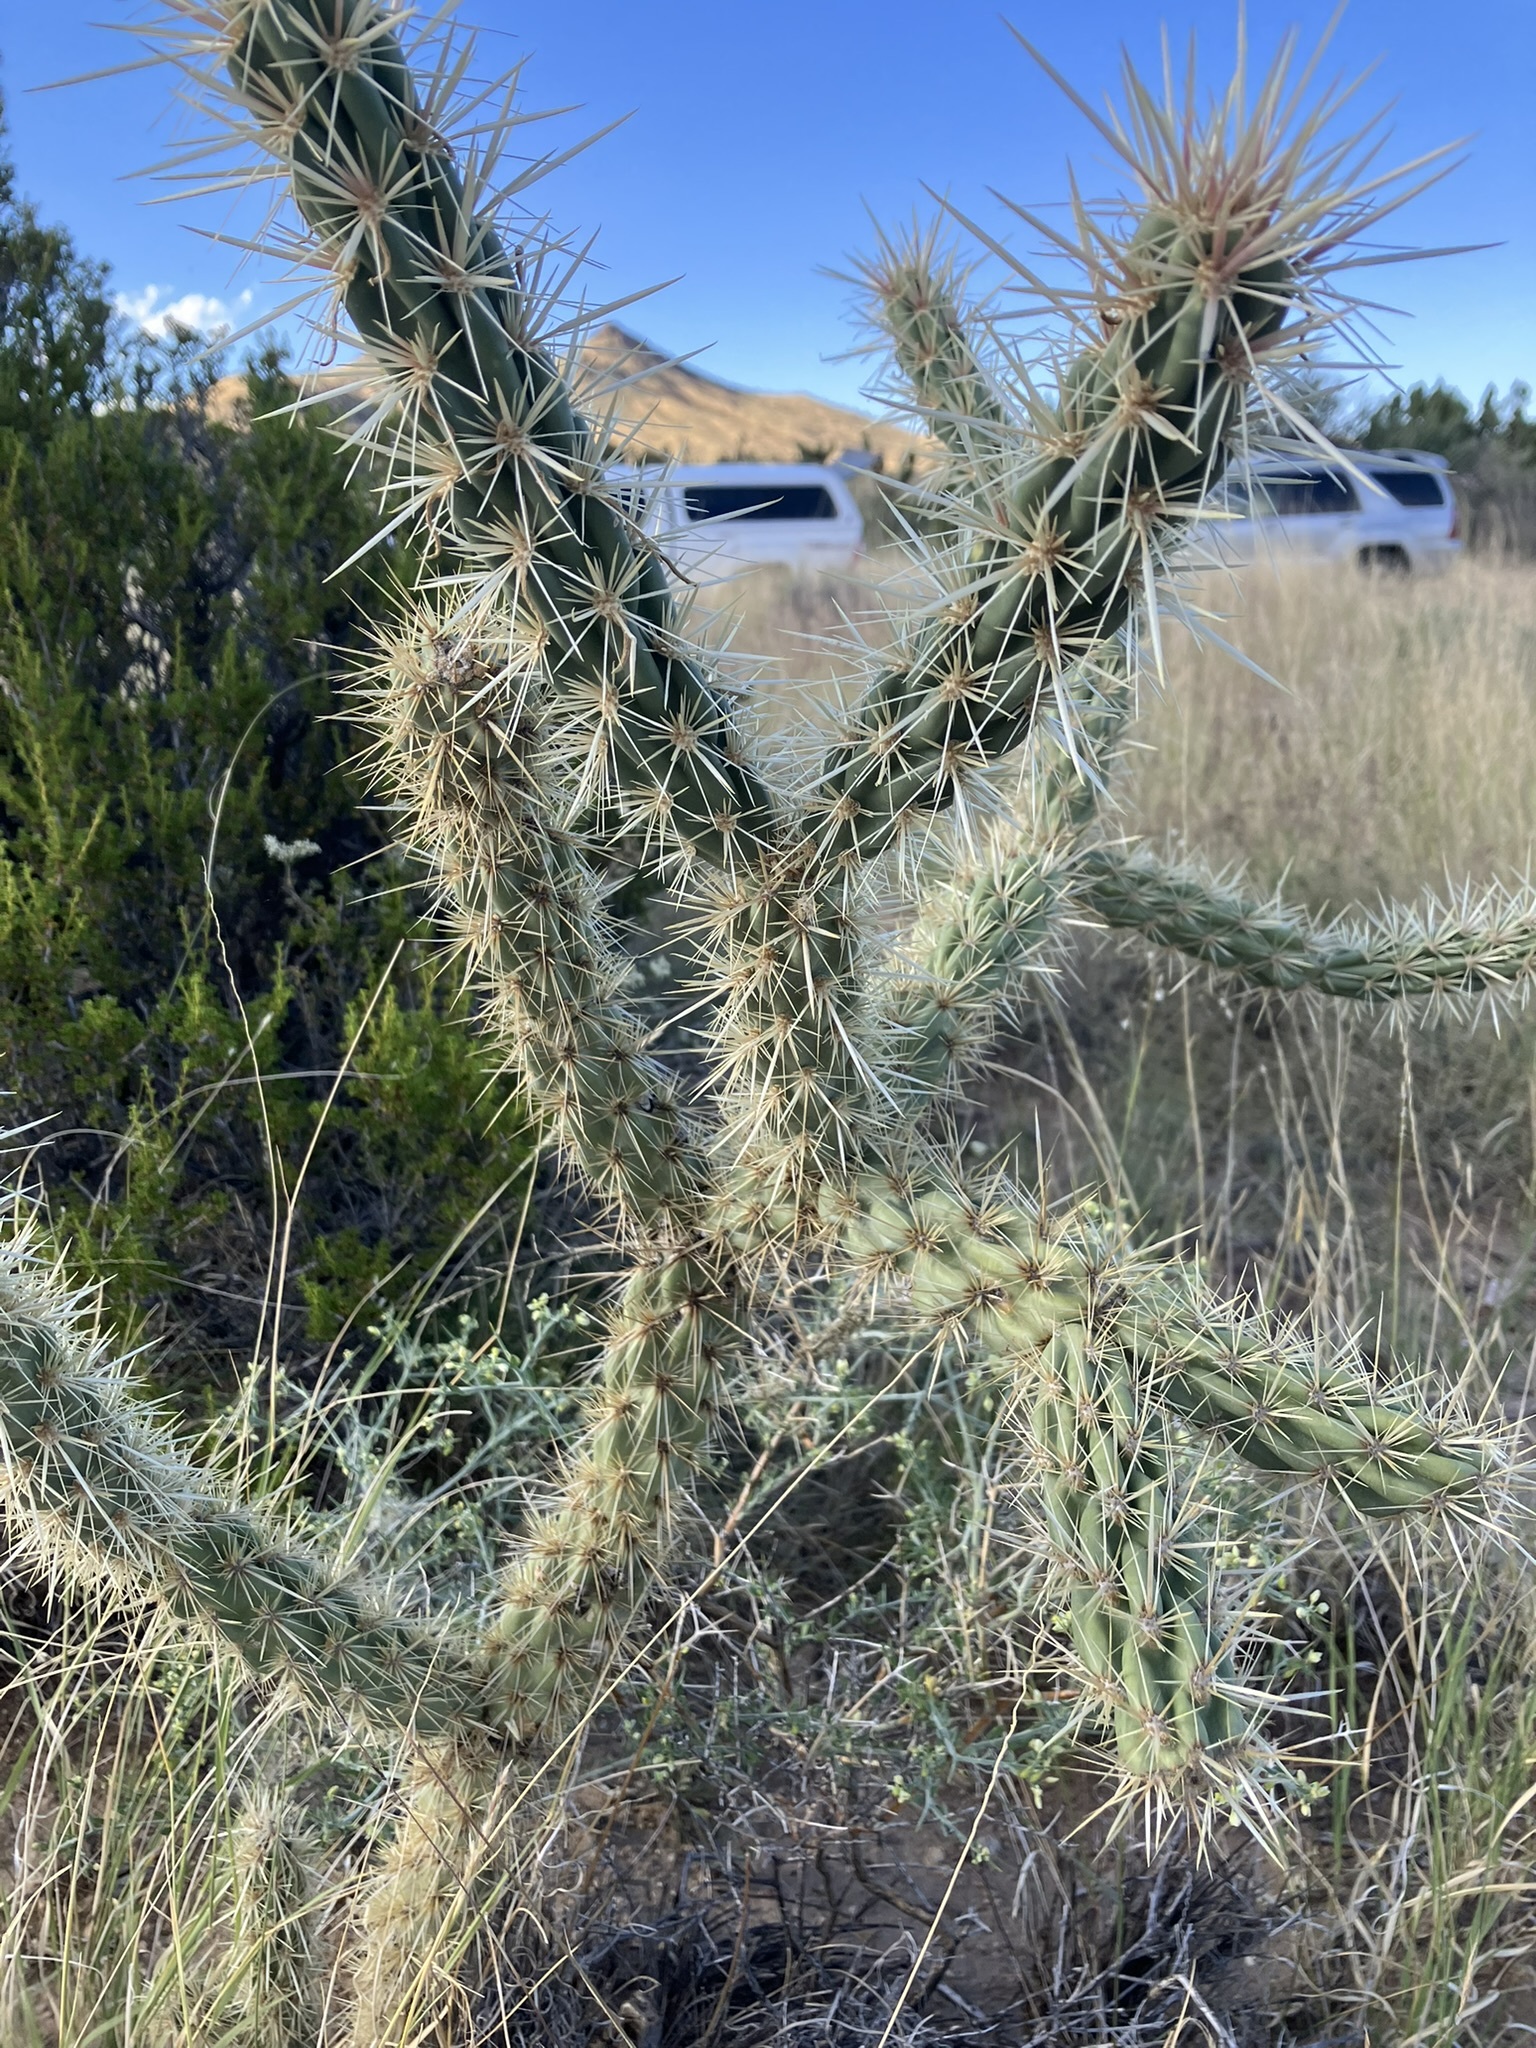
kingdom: Plantae
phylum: Tracheophyta
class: Magnoliopsida
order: Caryophyllales
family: Cactaceae
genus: Cylindropuntia
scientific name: Cylindropuntia acanthocarpa
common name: Buckhorn cholla
